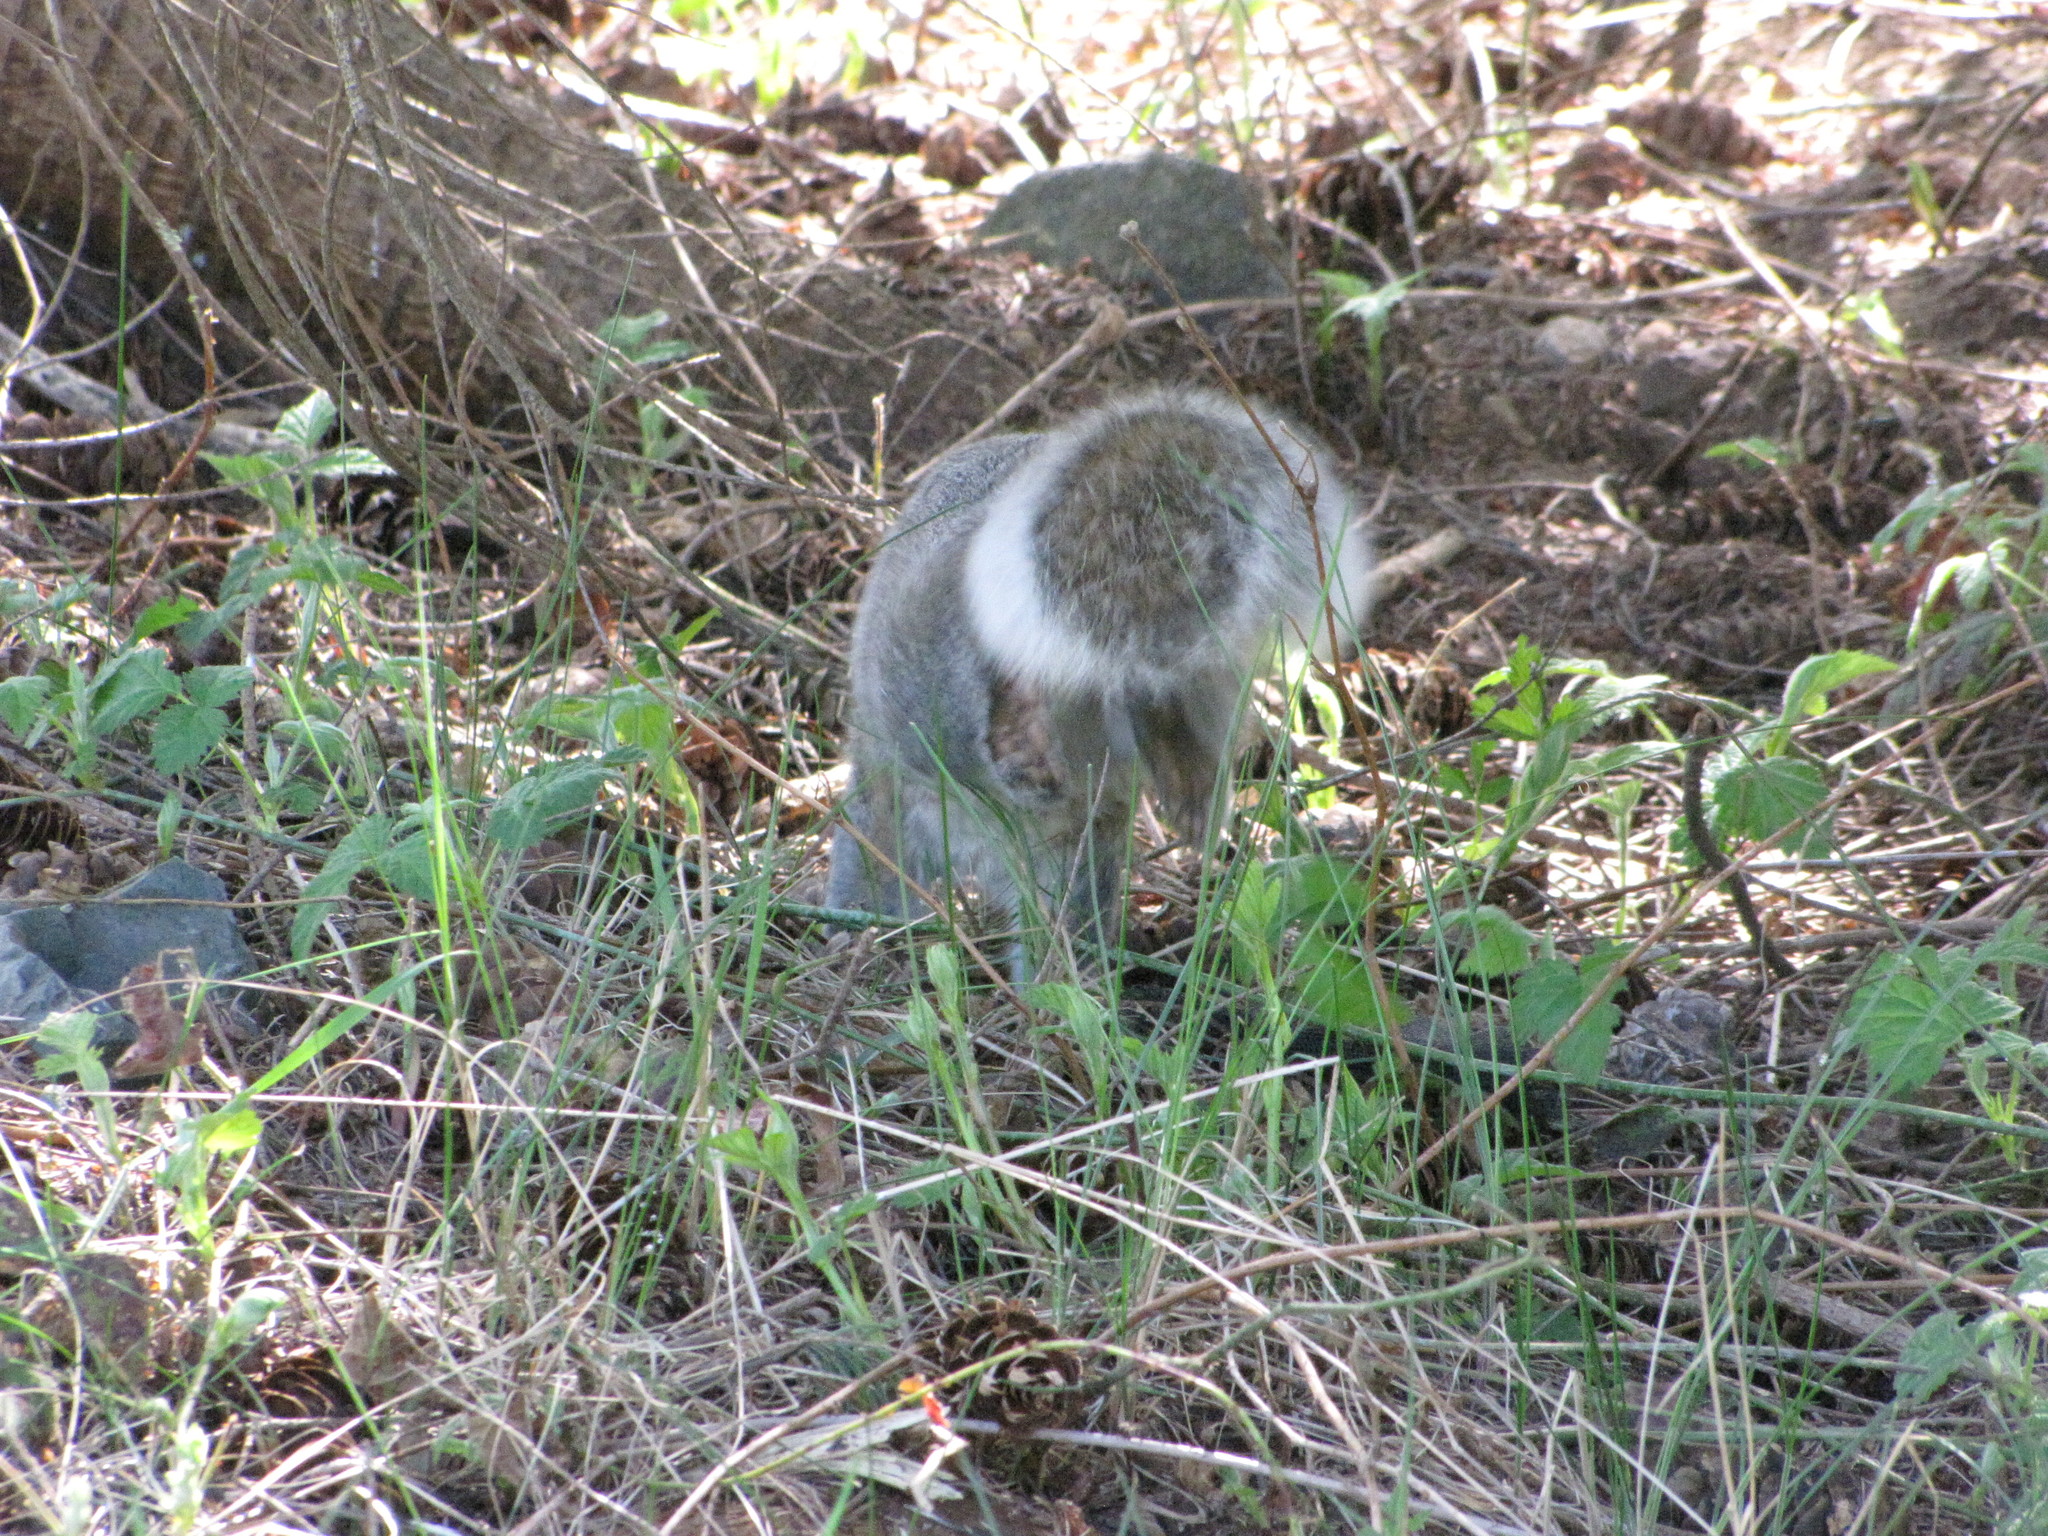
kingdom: Animalia
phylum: Chordata
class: Mammalia
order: Rodentia
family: Sciuridae
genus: Sciurus
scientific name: Sciurus carolinensis
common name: Eastern gray squirrel
